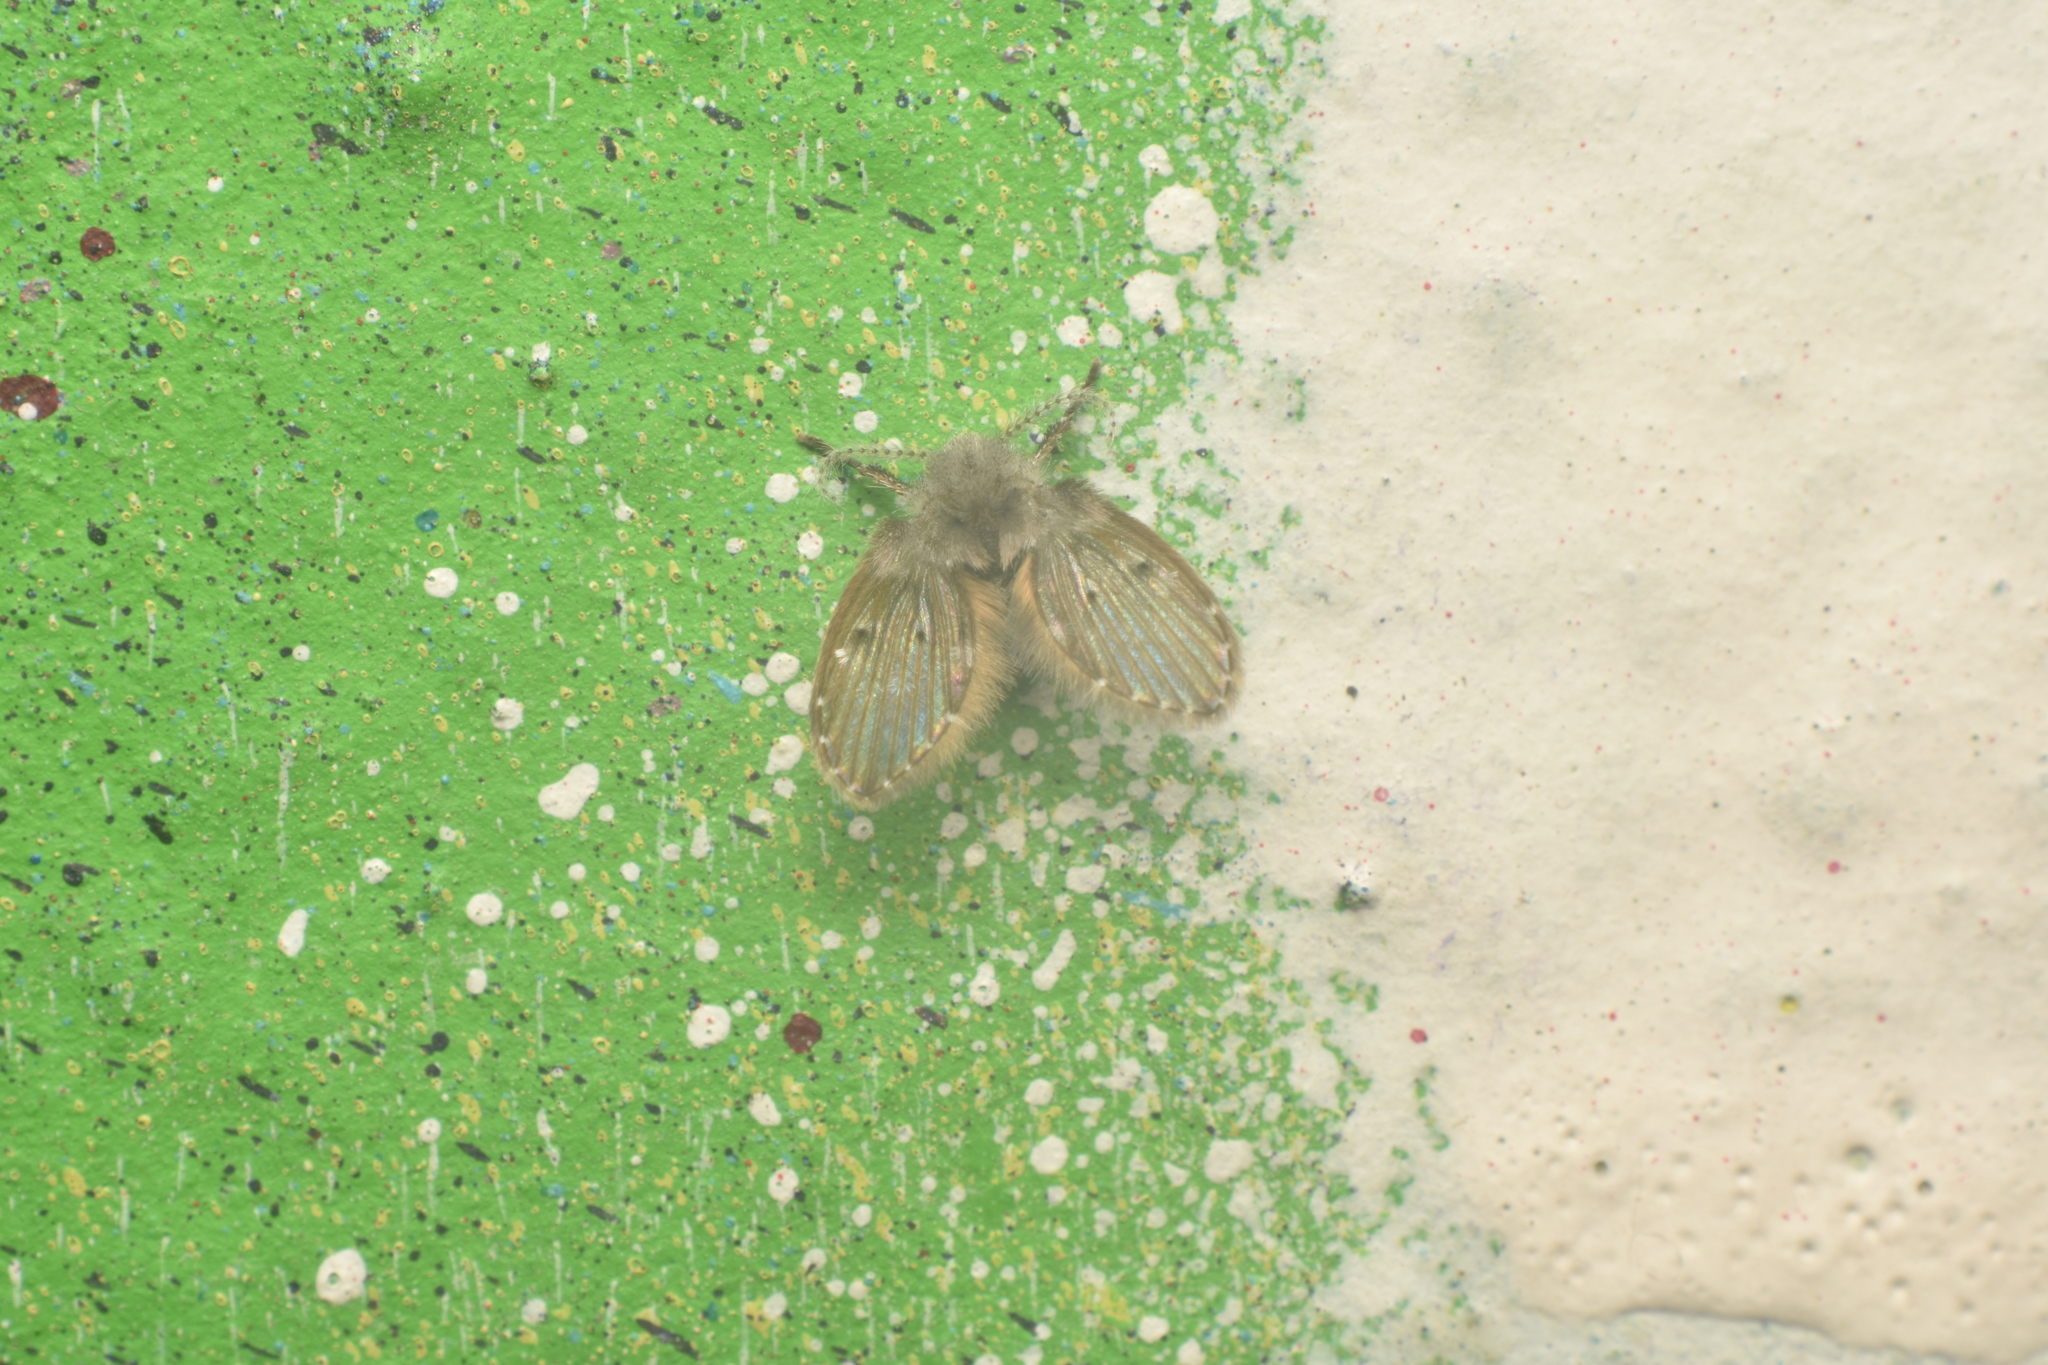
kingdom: Animalia
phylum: Arthropoda
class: Insecta
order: Diptera
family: Psychodidae
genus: Clogmia
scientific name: Clogmia albipunctatus
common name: White-spotted moth fly
